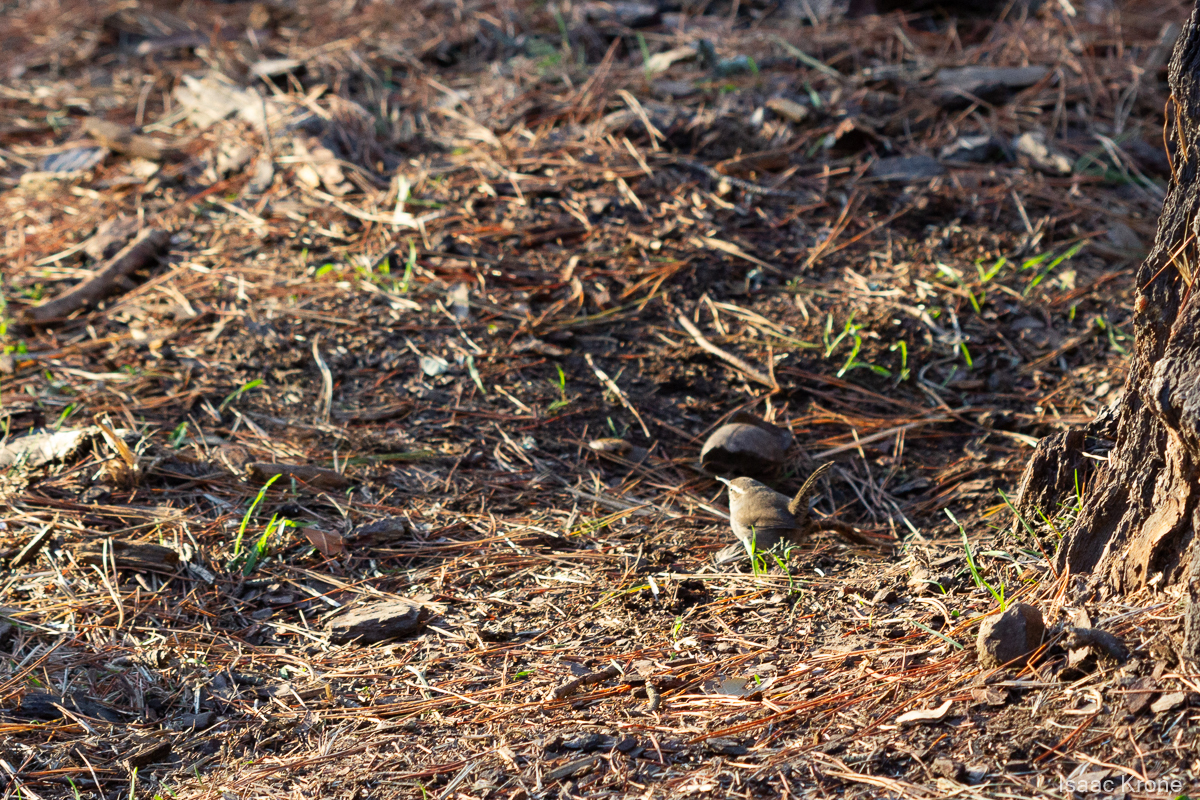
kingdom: Animalia
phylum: Chordata
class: Aves
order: Passeriformes
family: Troglodytidae
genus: Thryomanes
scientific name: Thryomanes bewickii
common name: Bewick's wren
